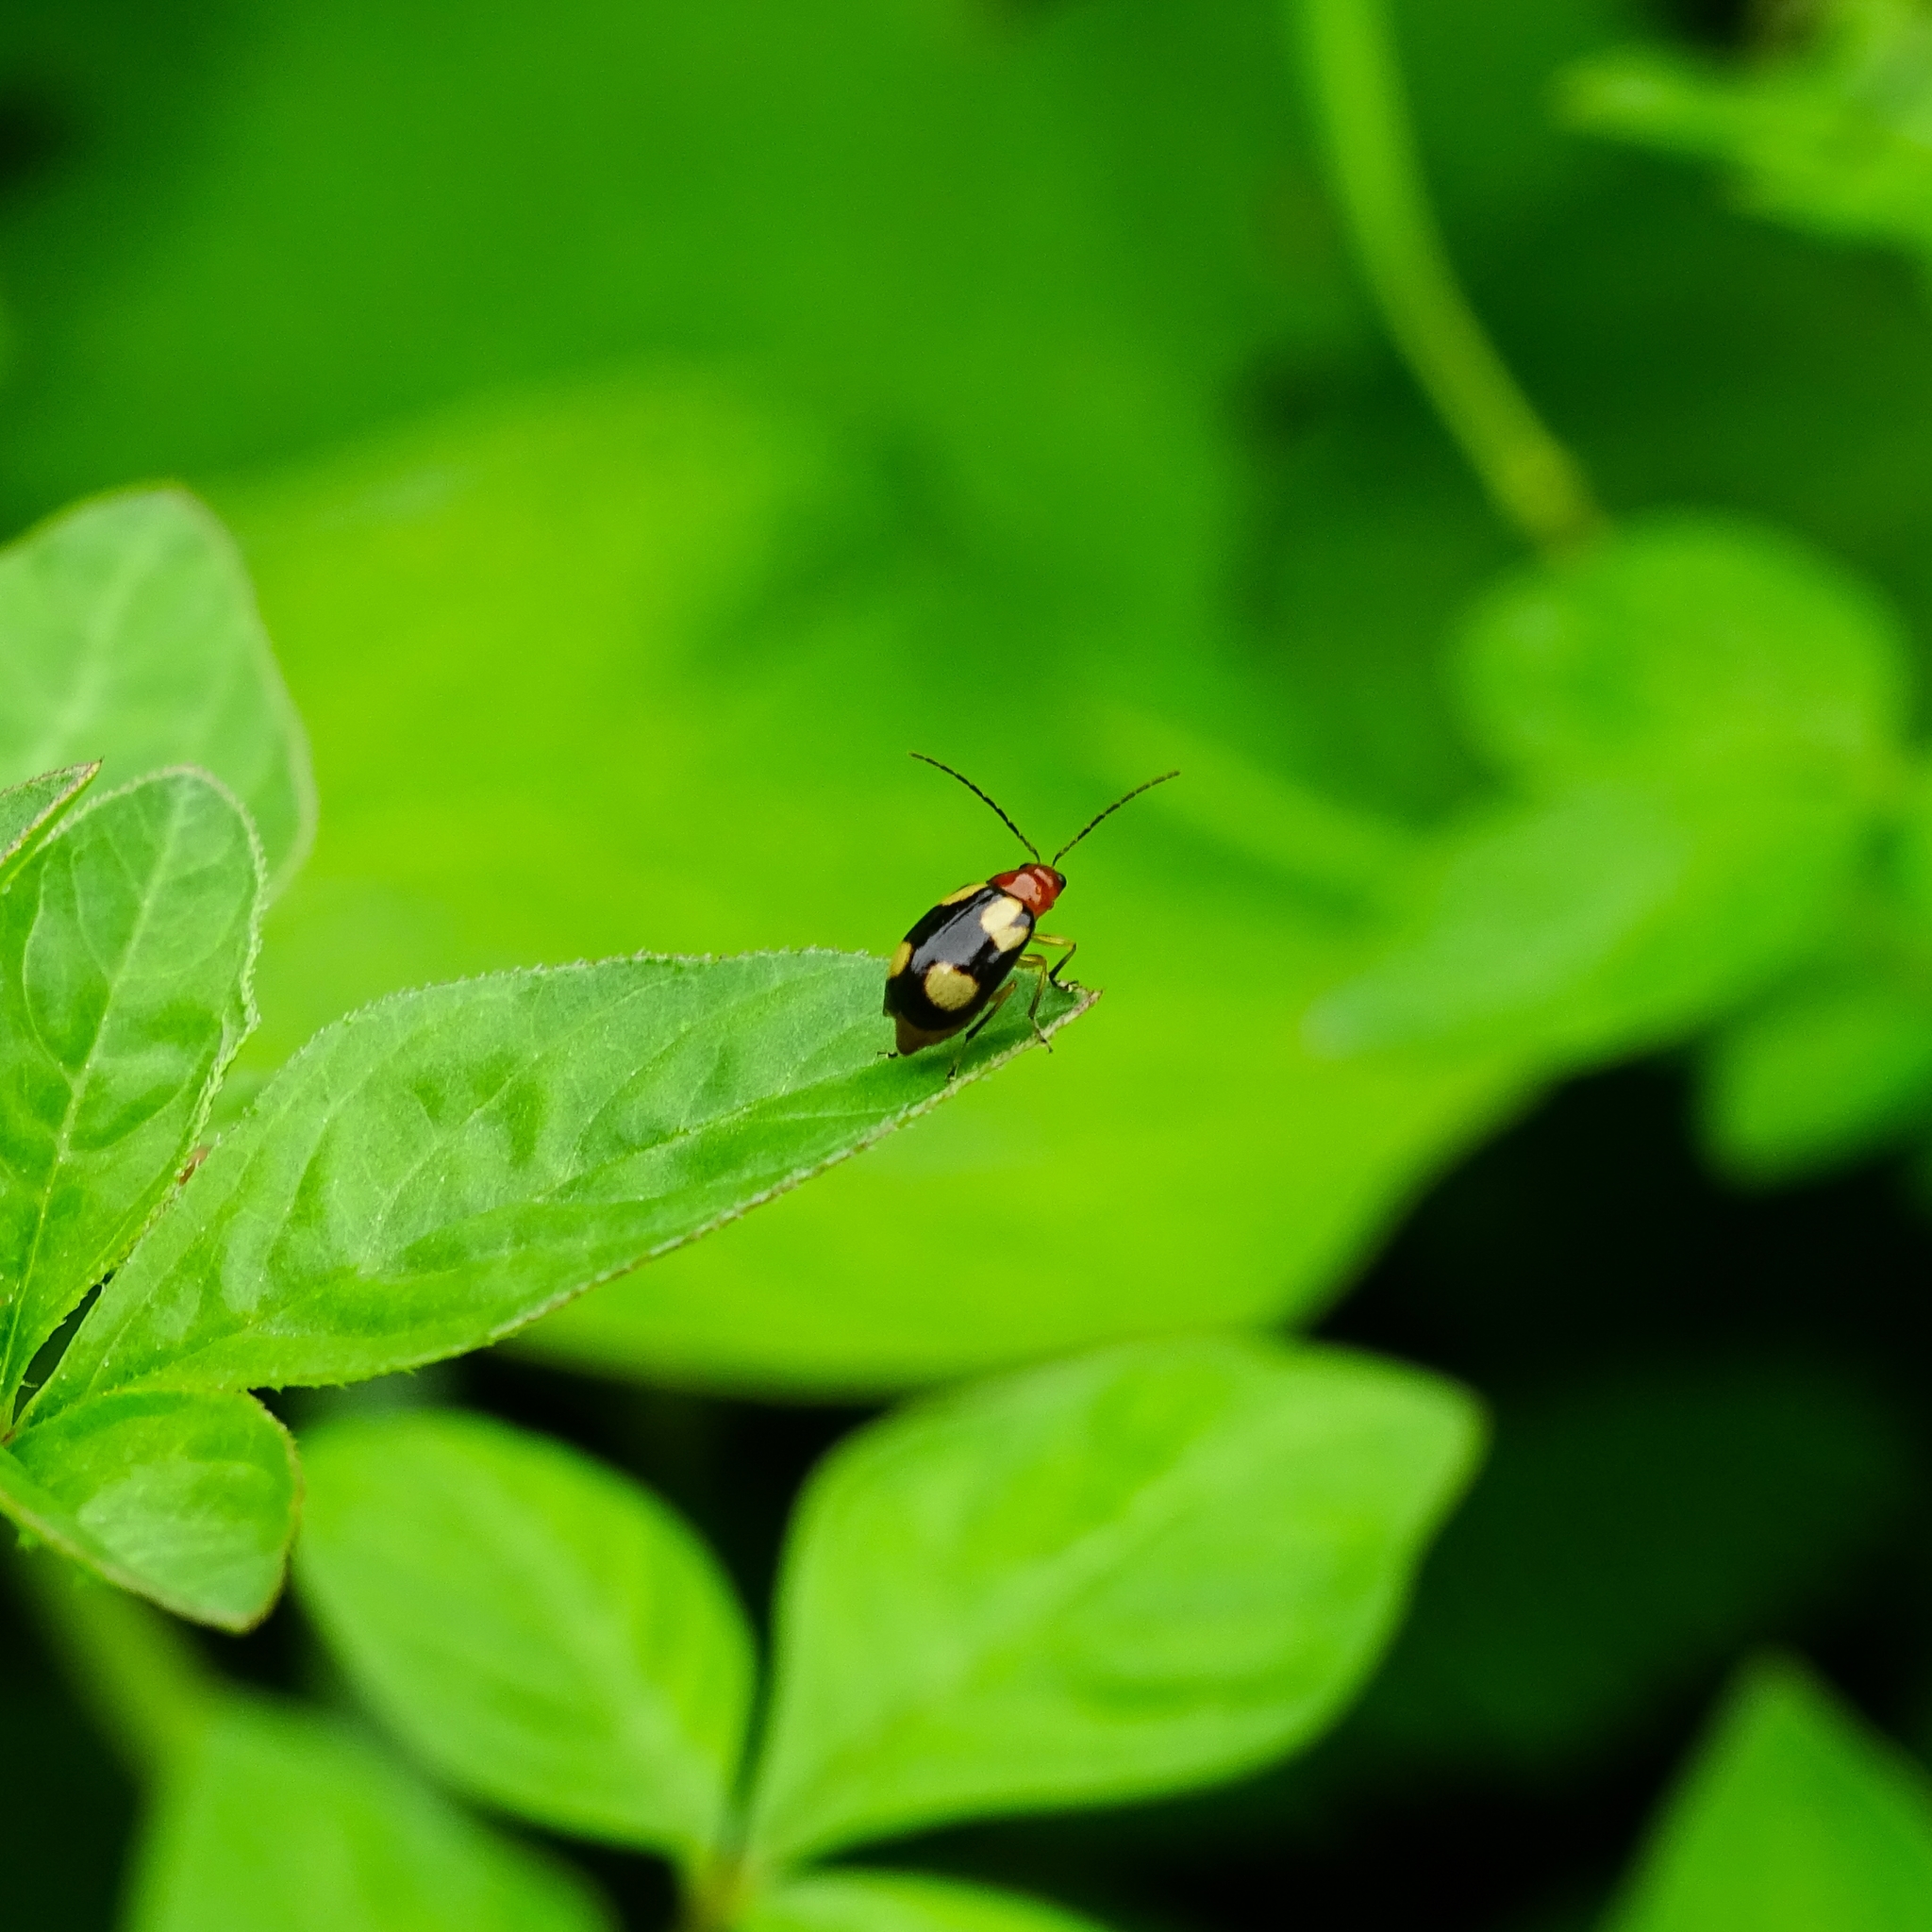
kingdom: Animalia
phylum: Arthropoda
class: Insecta
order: Coleoptera
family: Chrysomelidae
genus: Monolepta
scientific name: Monolepta signata
